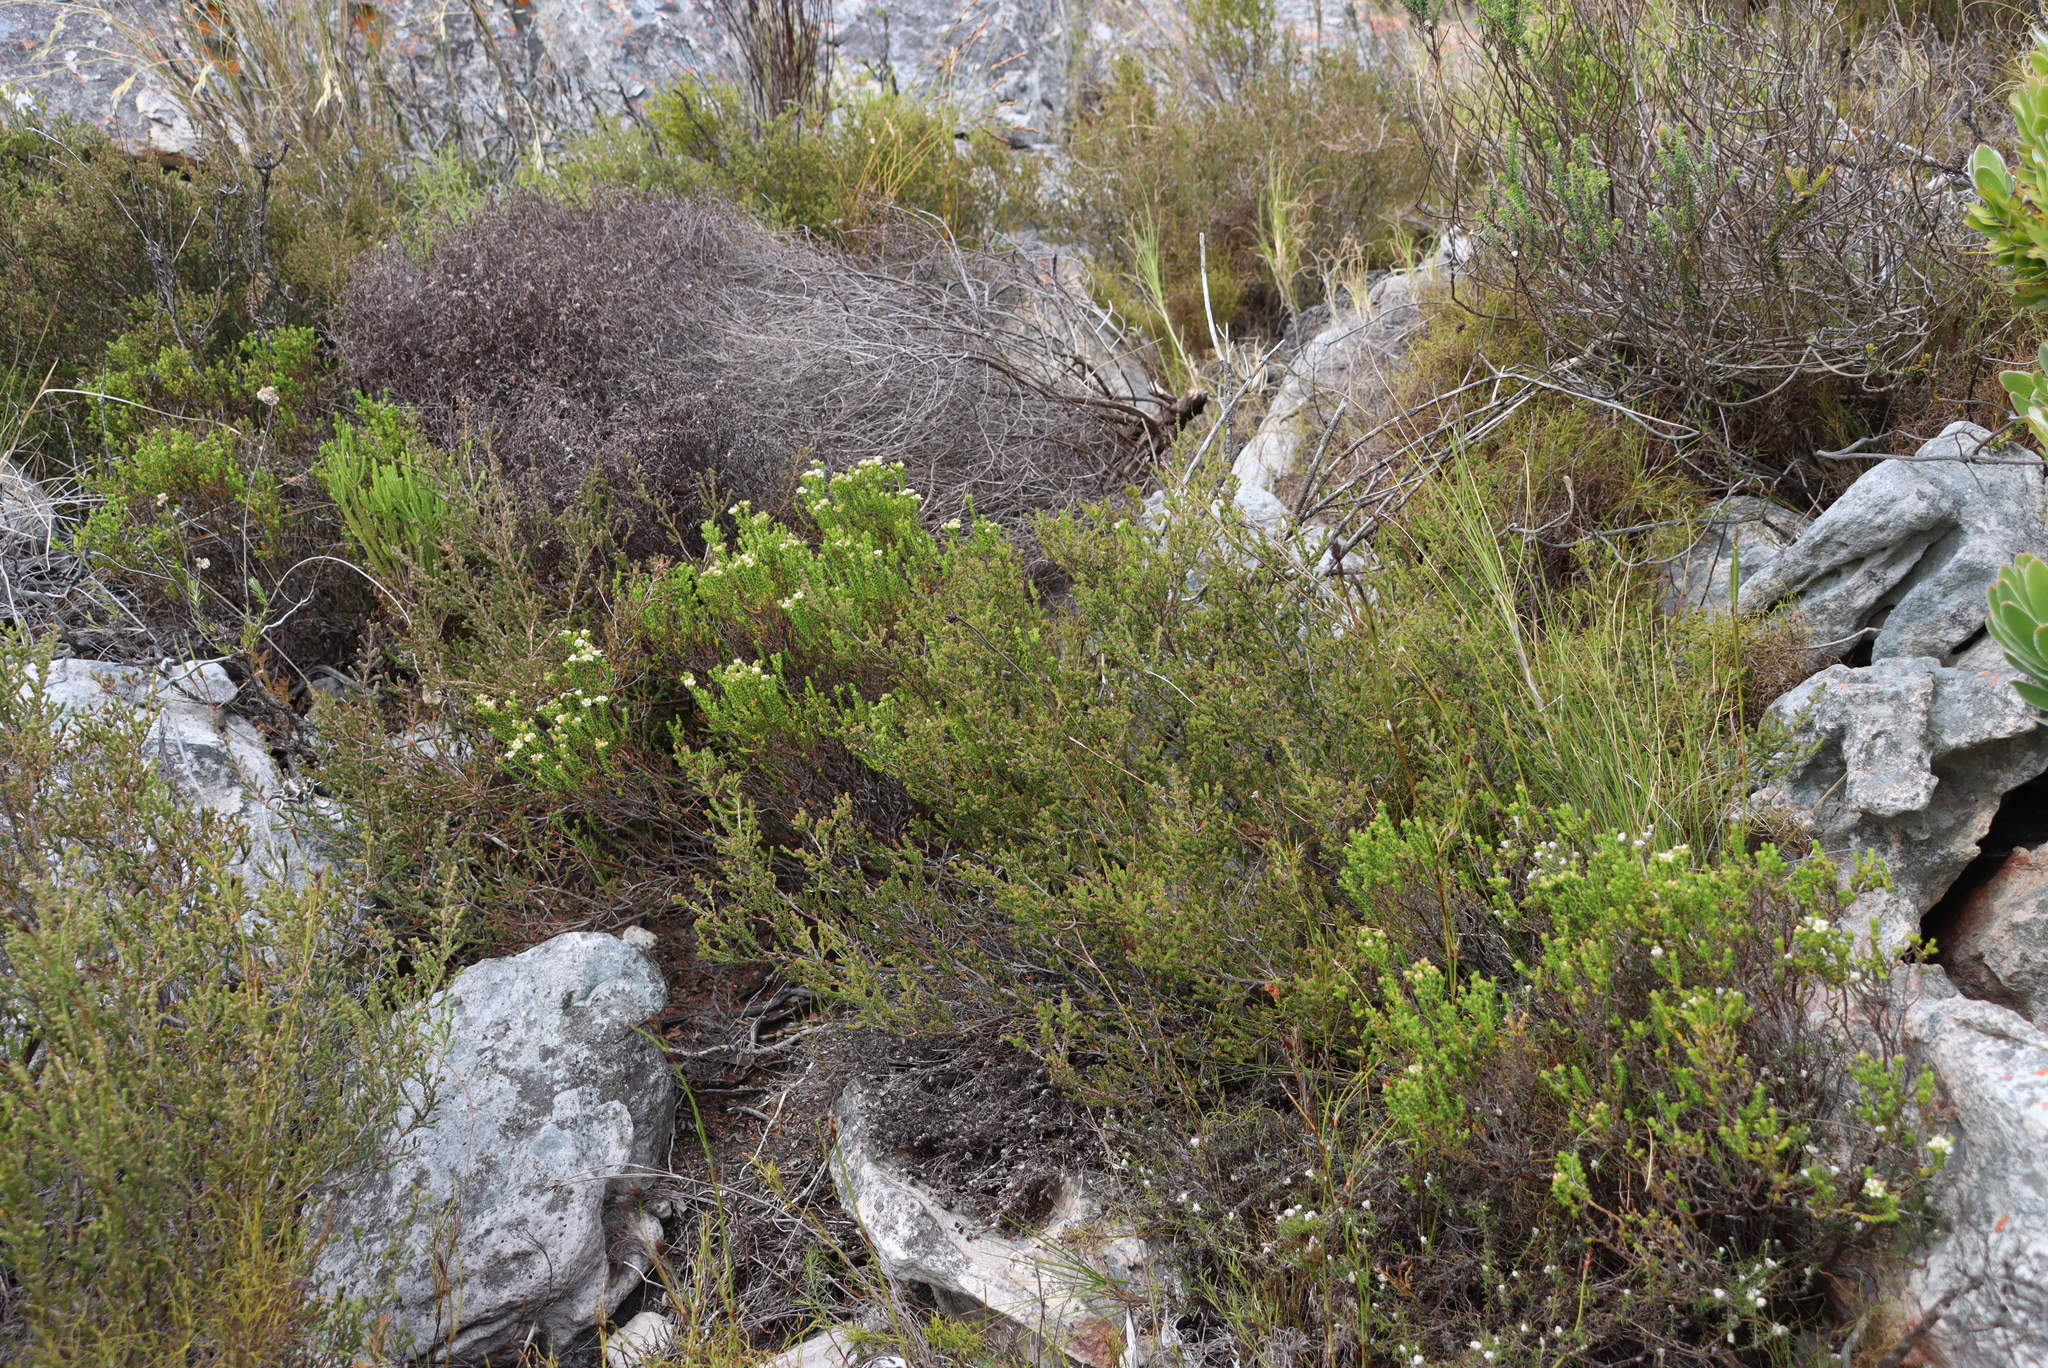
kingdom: Plantae
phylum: Tracheophyta
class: Magnoliopsida
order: Sapindales
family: Rutaceae
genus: Diosma
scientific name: Diosma demissa
